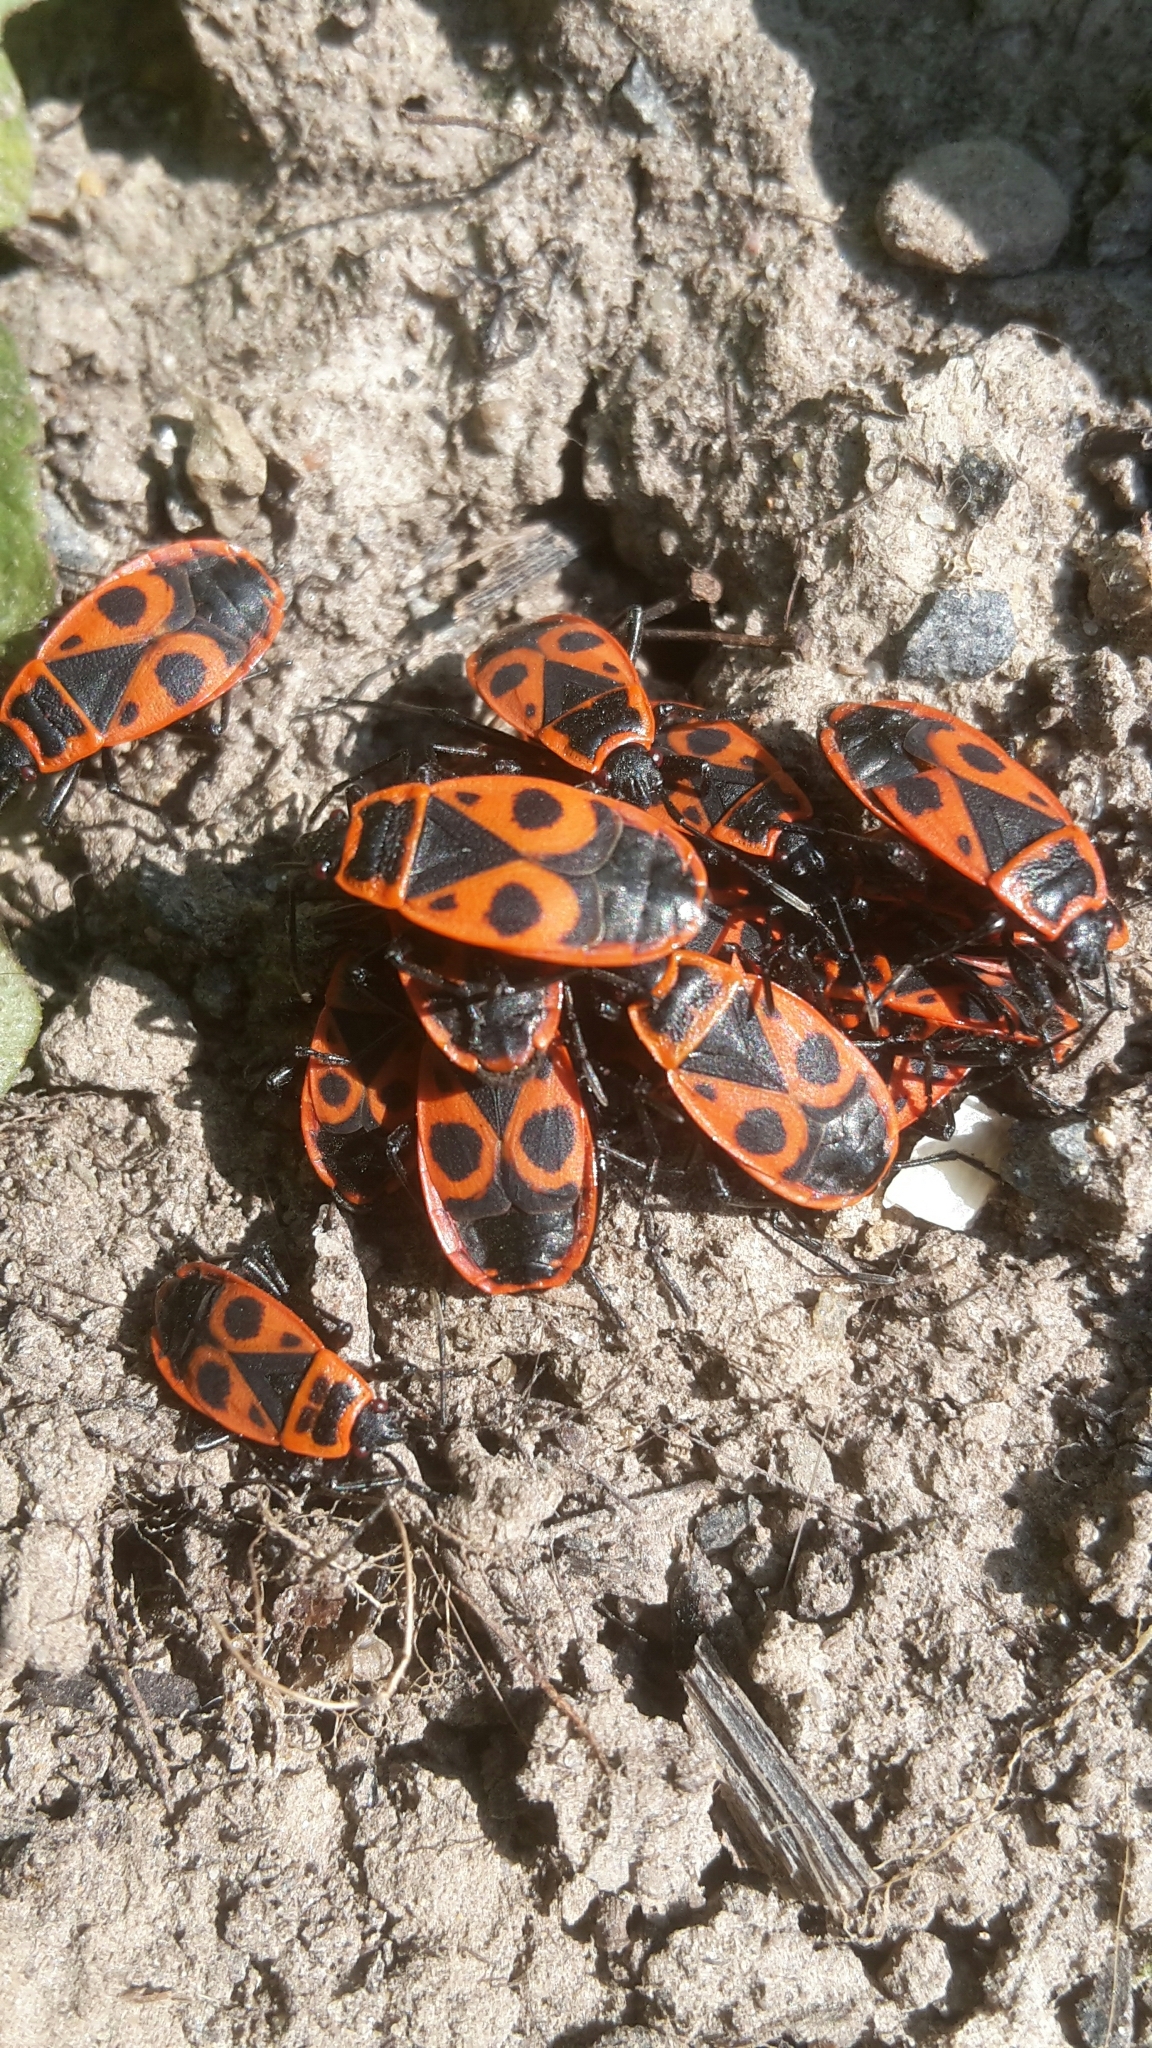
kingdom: Animalia
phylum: Arthropoda
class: Insecta
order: Hemiptera
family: Pyrrhocoridae
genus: Pyrrhocoris
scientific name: Pyrrhocoris apterus
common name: Firebug
